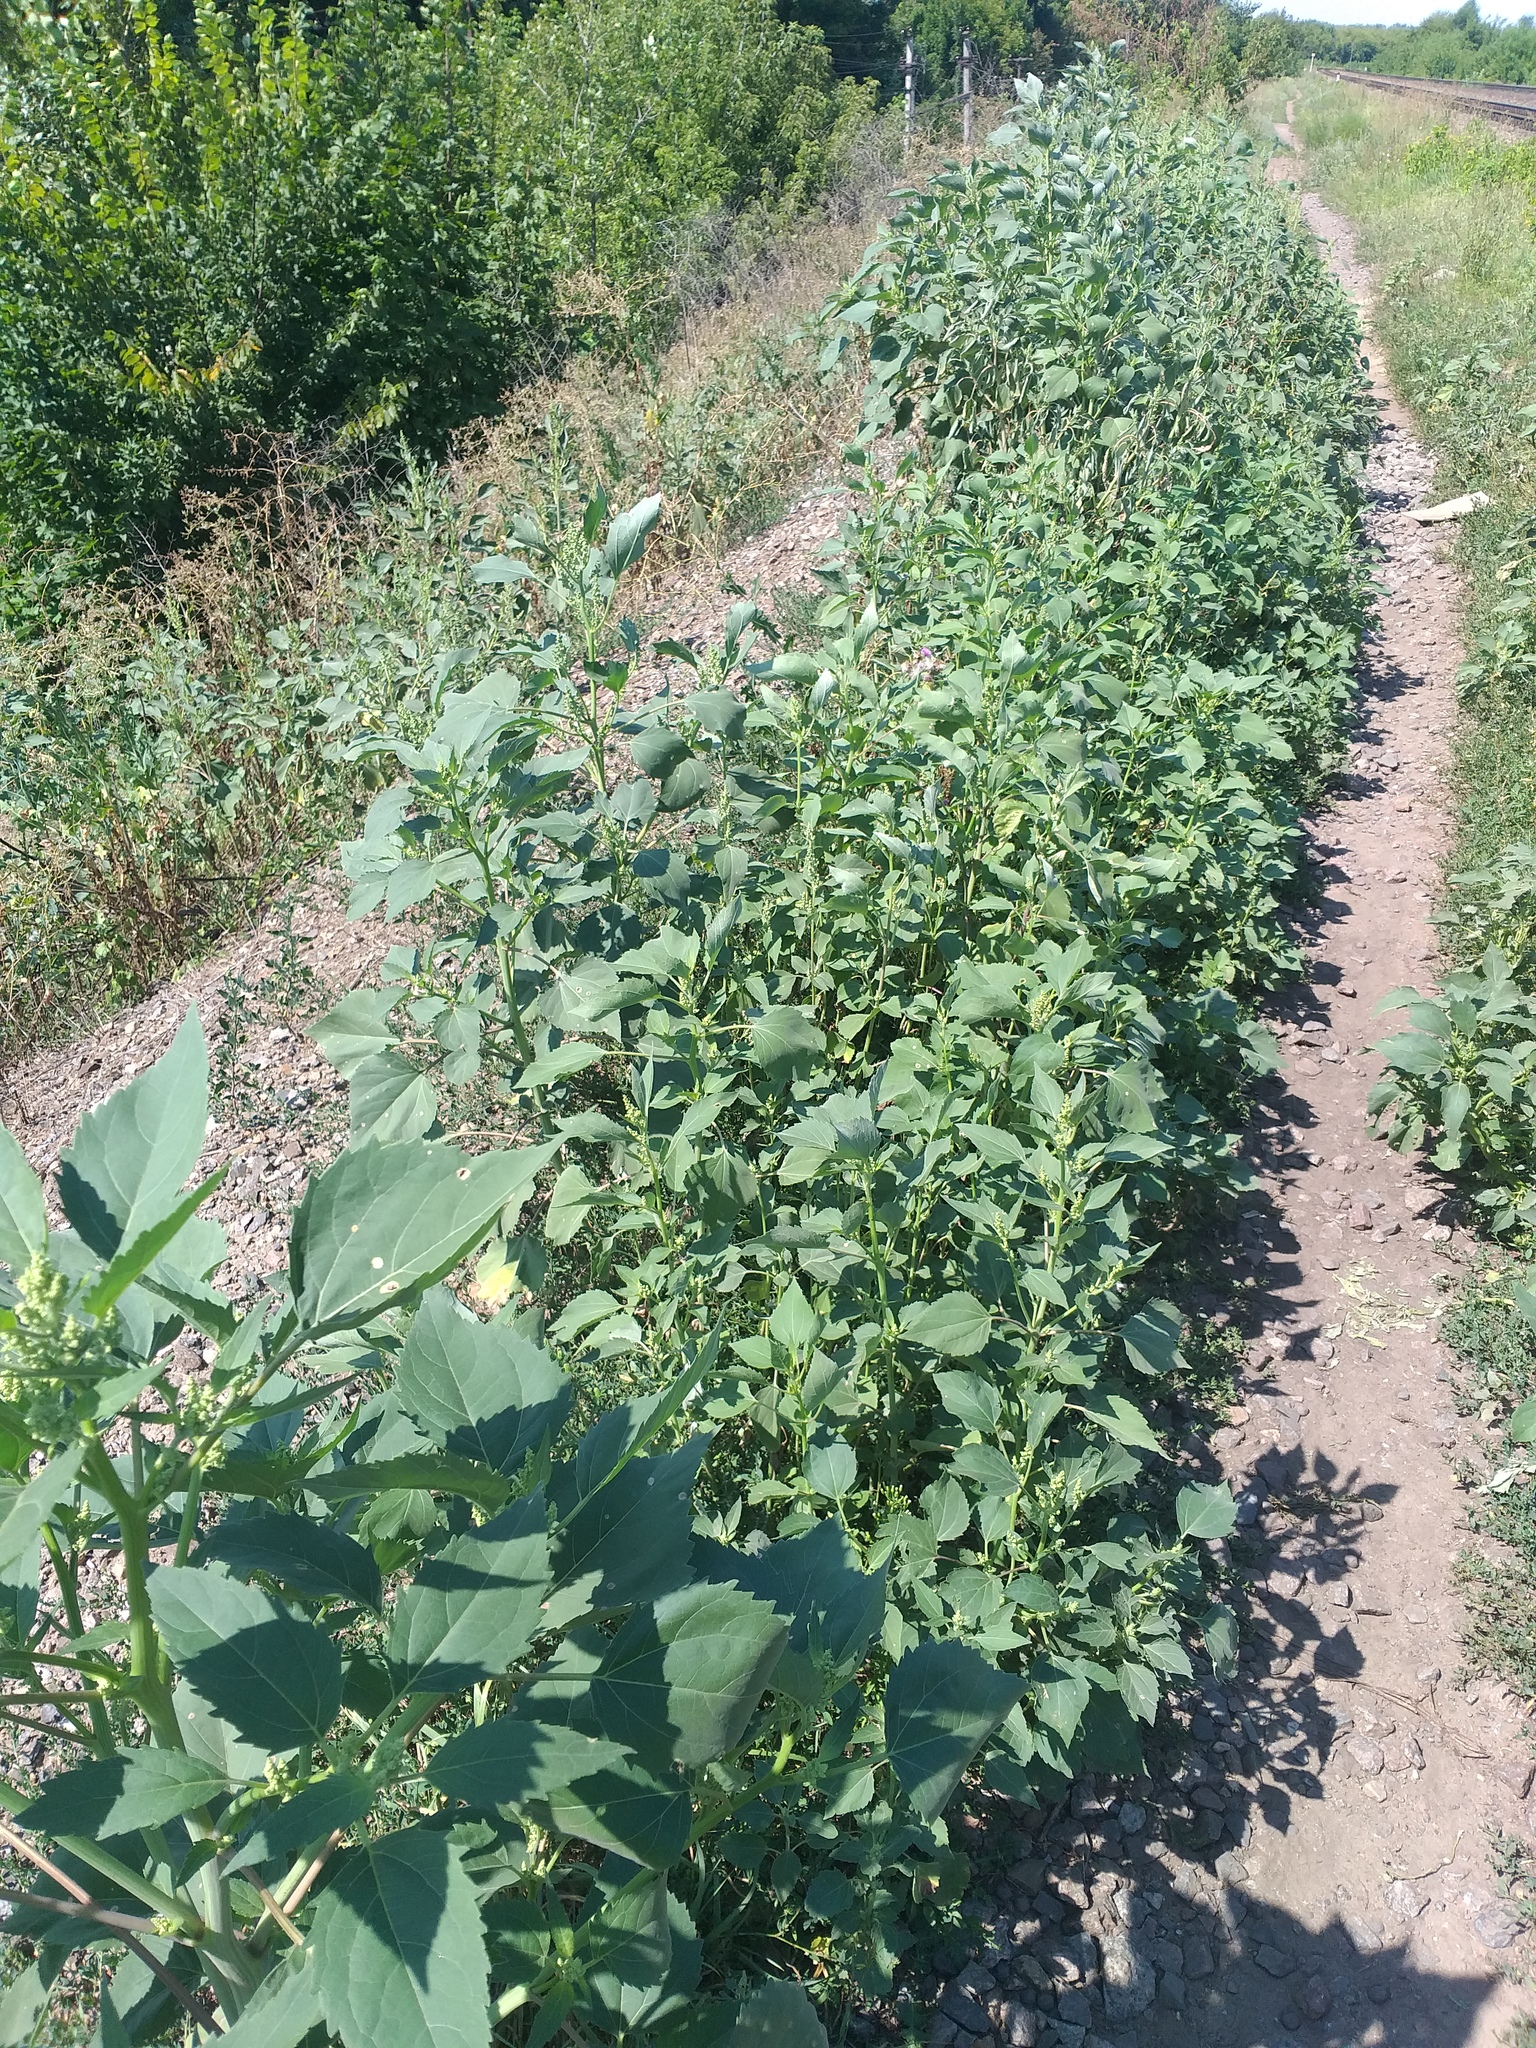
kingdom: Plantae
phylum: Tracheophyta
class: Magnoliopsida
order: Asterales
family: Asteraceae
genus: Cyclachaena
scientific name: Cyclachaena xanthiifolia
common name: Giant sumpweed
